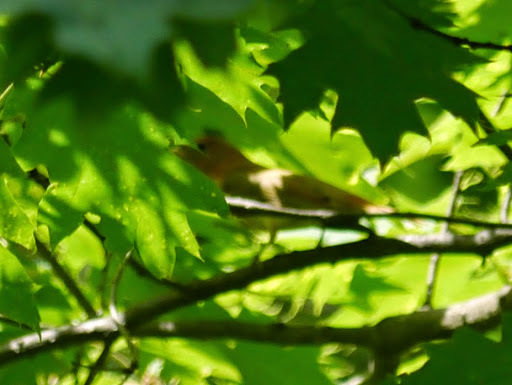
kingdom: Animalia
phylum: Chordata
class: Aves
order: Passeriformes
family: Cardinalidae
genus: Piranga
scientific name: Piranga rubra
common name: Summer tanager
